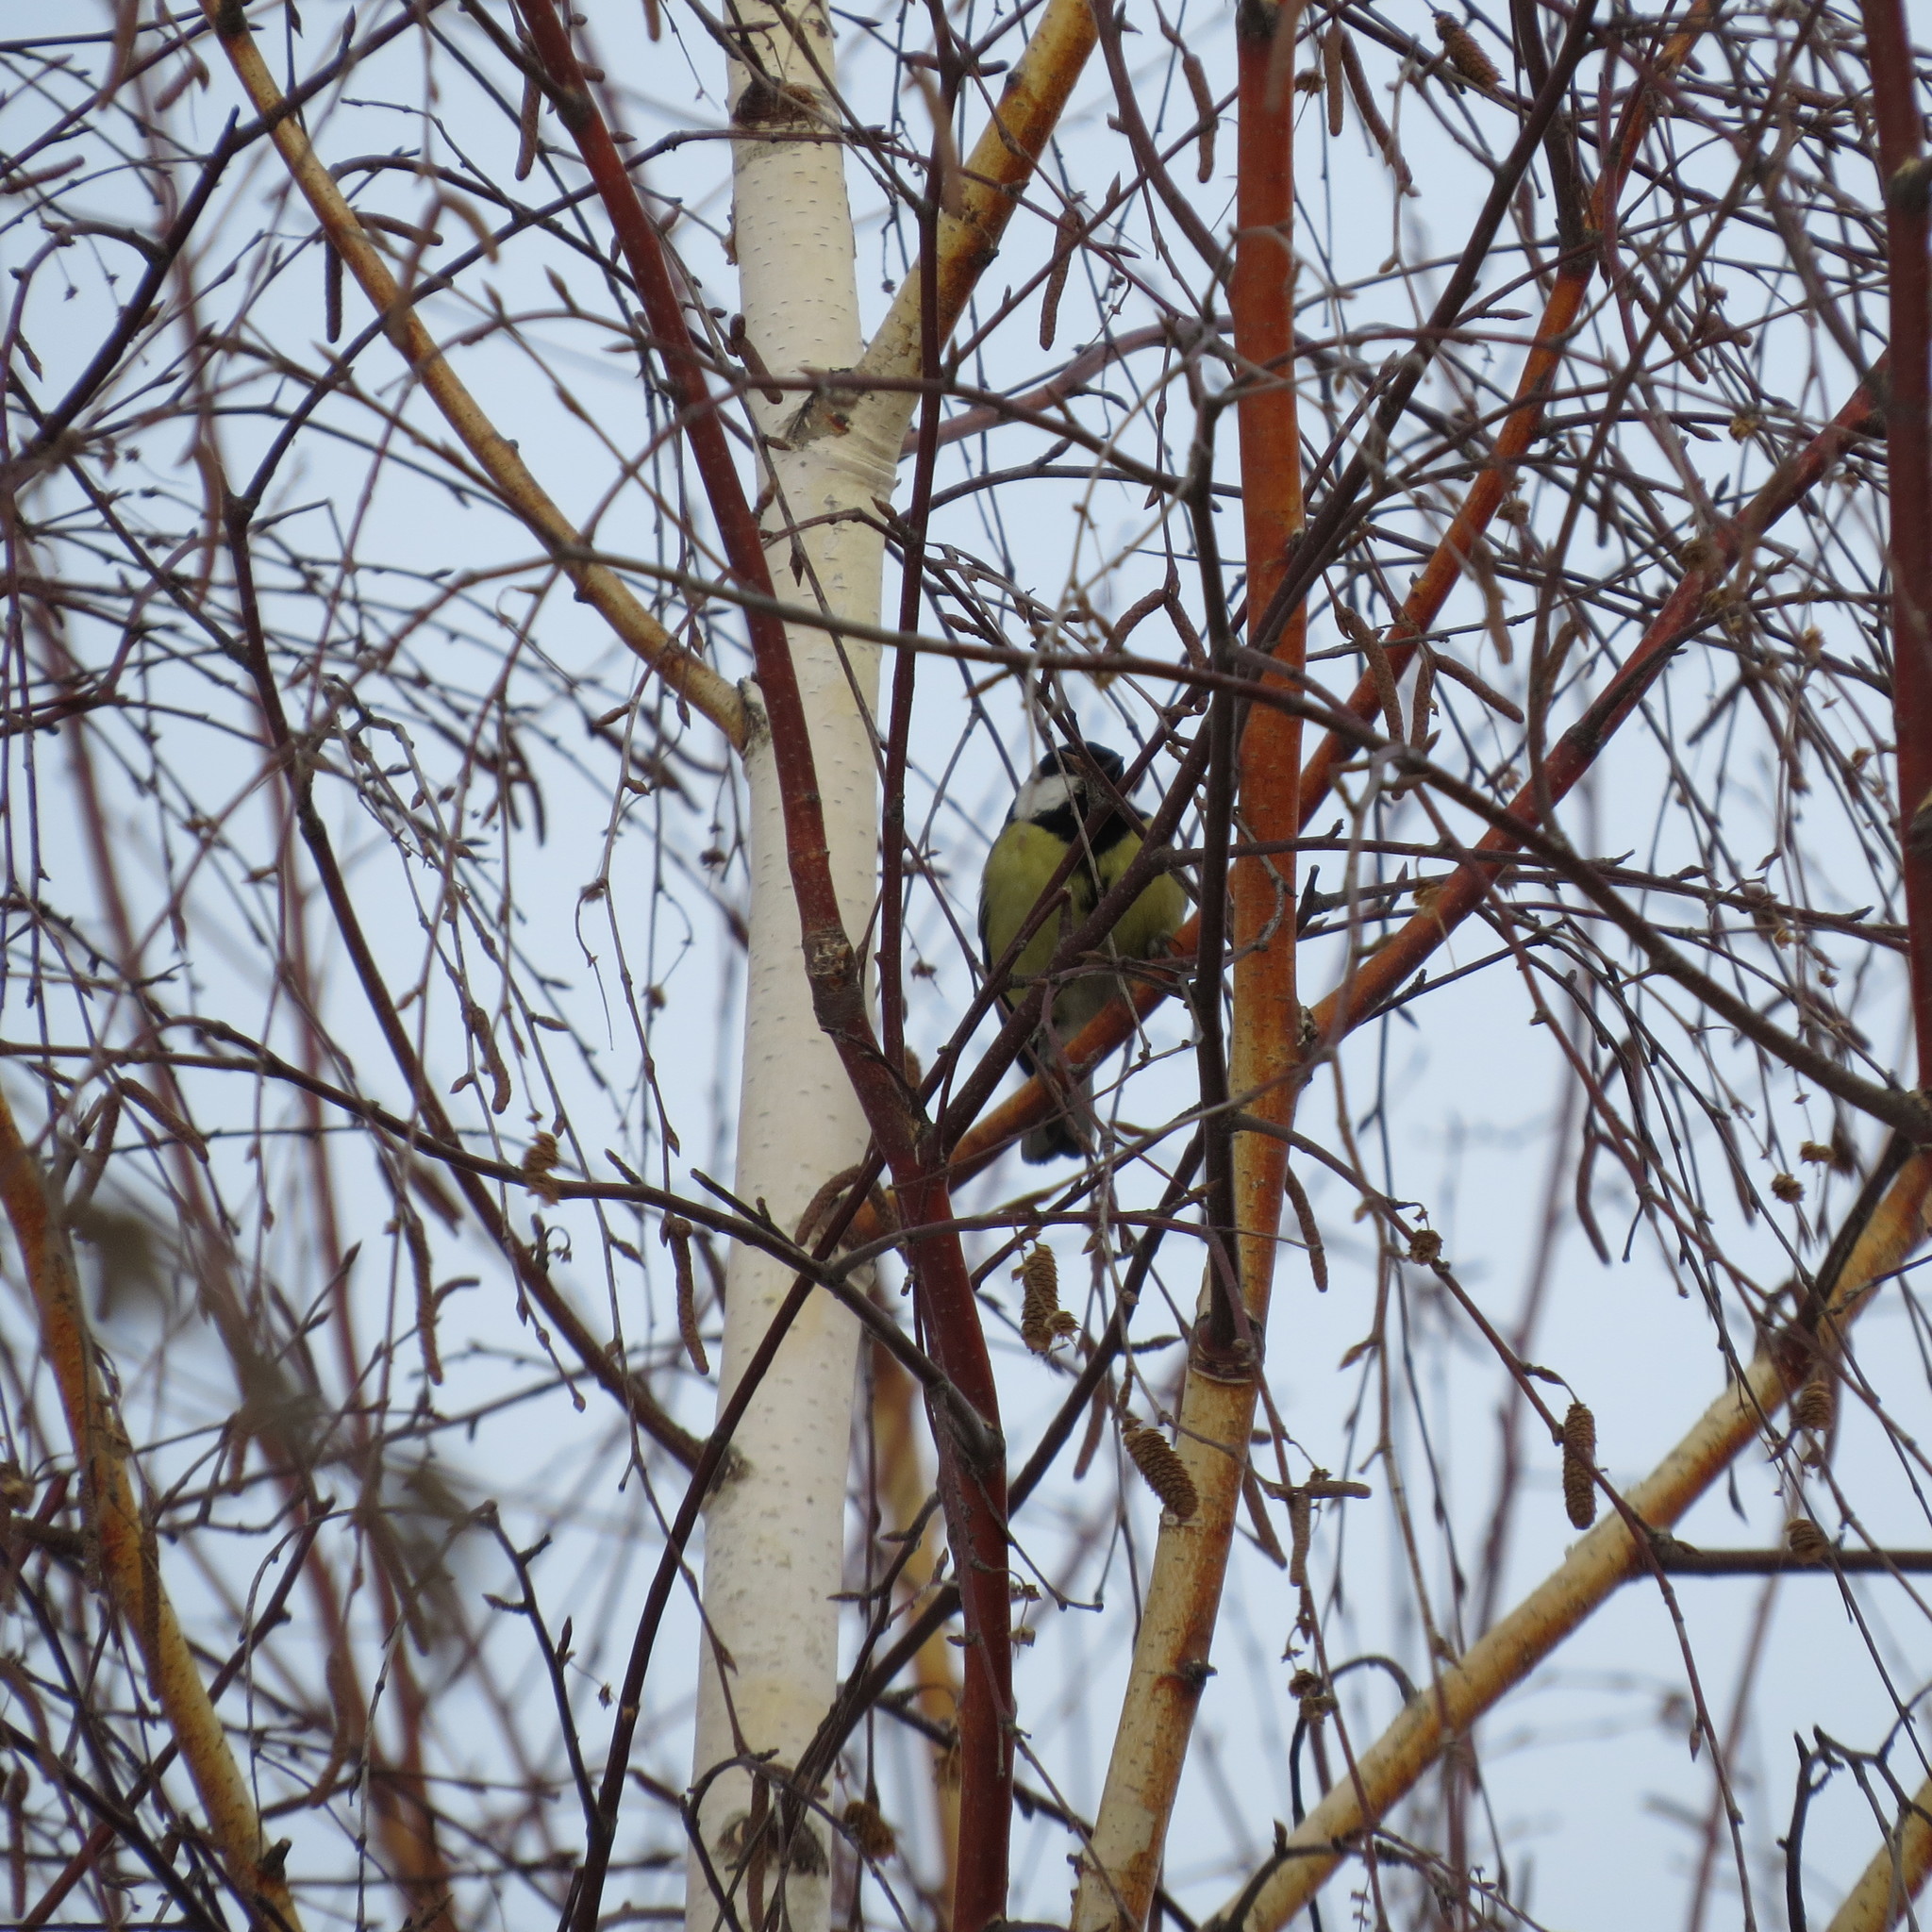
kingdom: Animalia
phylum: Chordata
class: Aves
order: Passeriformes
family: Paridae
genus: Parus
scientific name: Parus major
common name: Great tit
